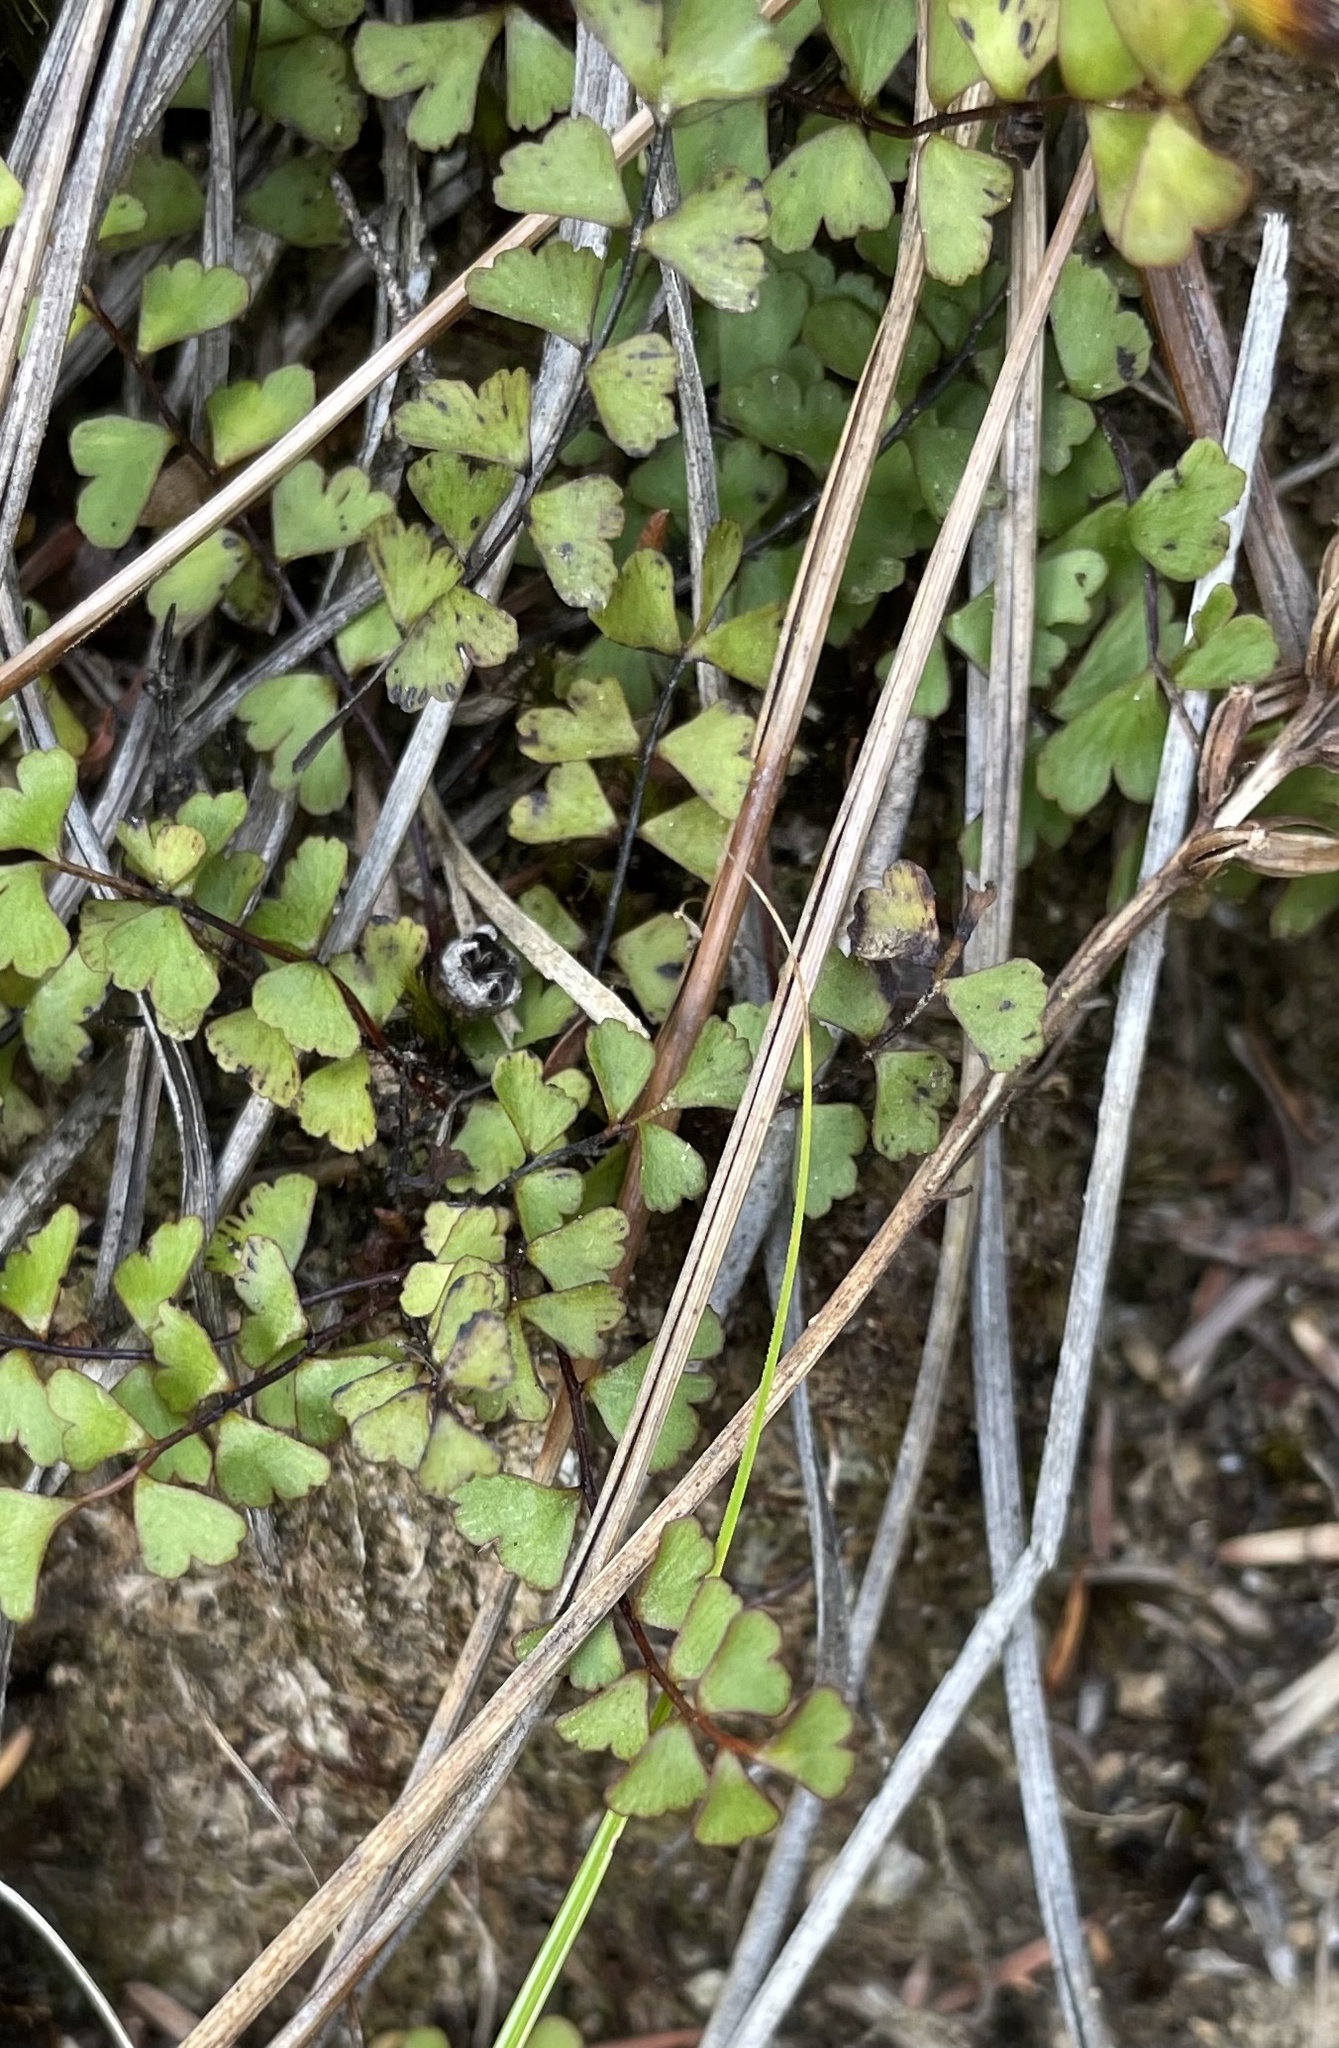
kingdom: Plantae
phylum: Tracheophyta
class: Polypodiopsida
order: Polypodiales
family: Lindsaeaceae
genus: Lindsaea
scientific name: Lindsaea linearis
